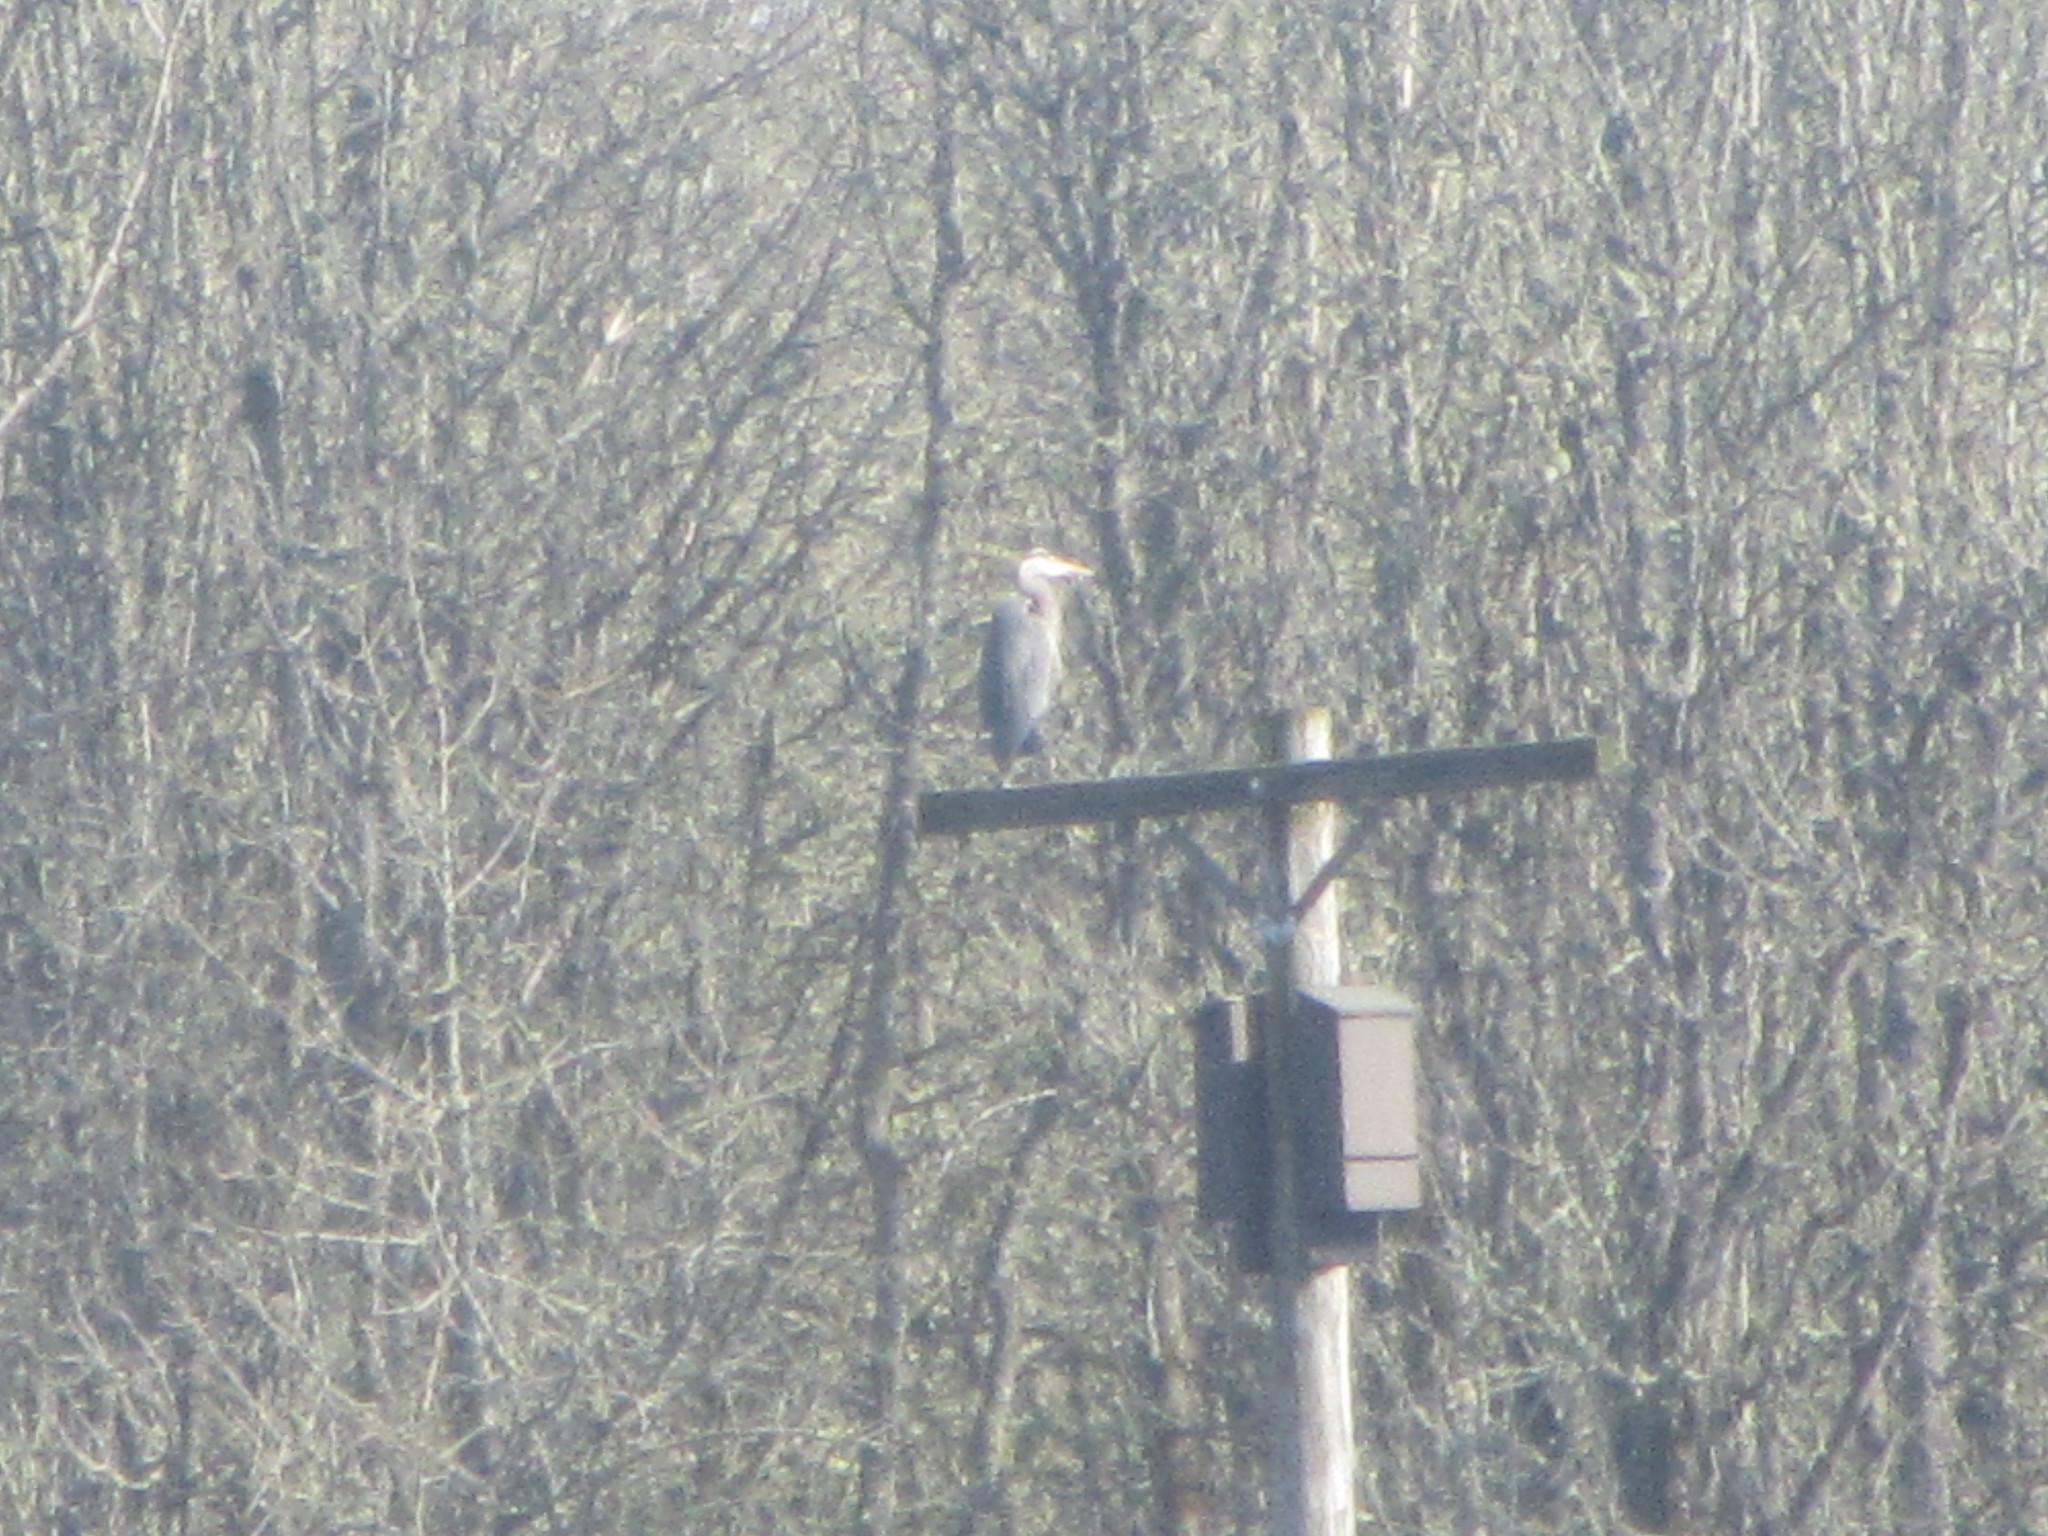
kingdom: Animalia
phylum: Chordata
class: Aves
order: Pelecaniformes
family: Ardeidae
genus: Ardea
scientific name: Ardea herodias
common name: Great blue heron
